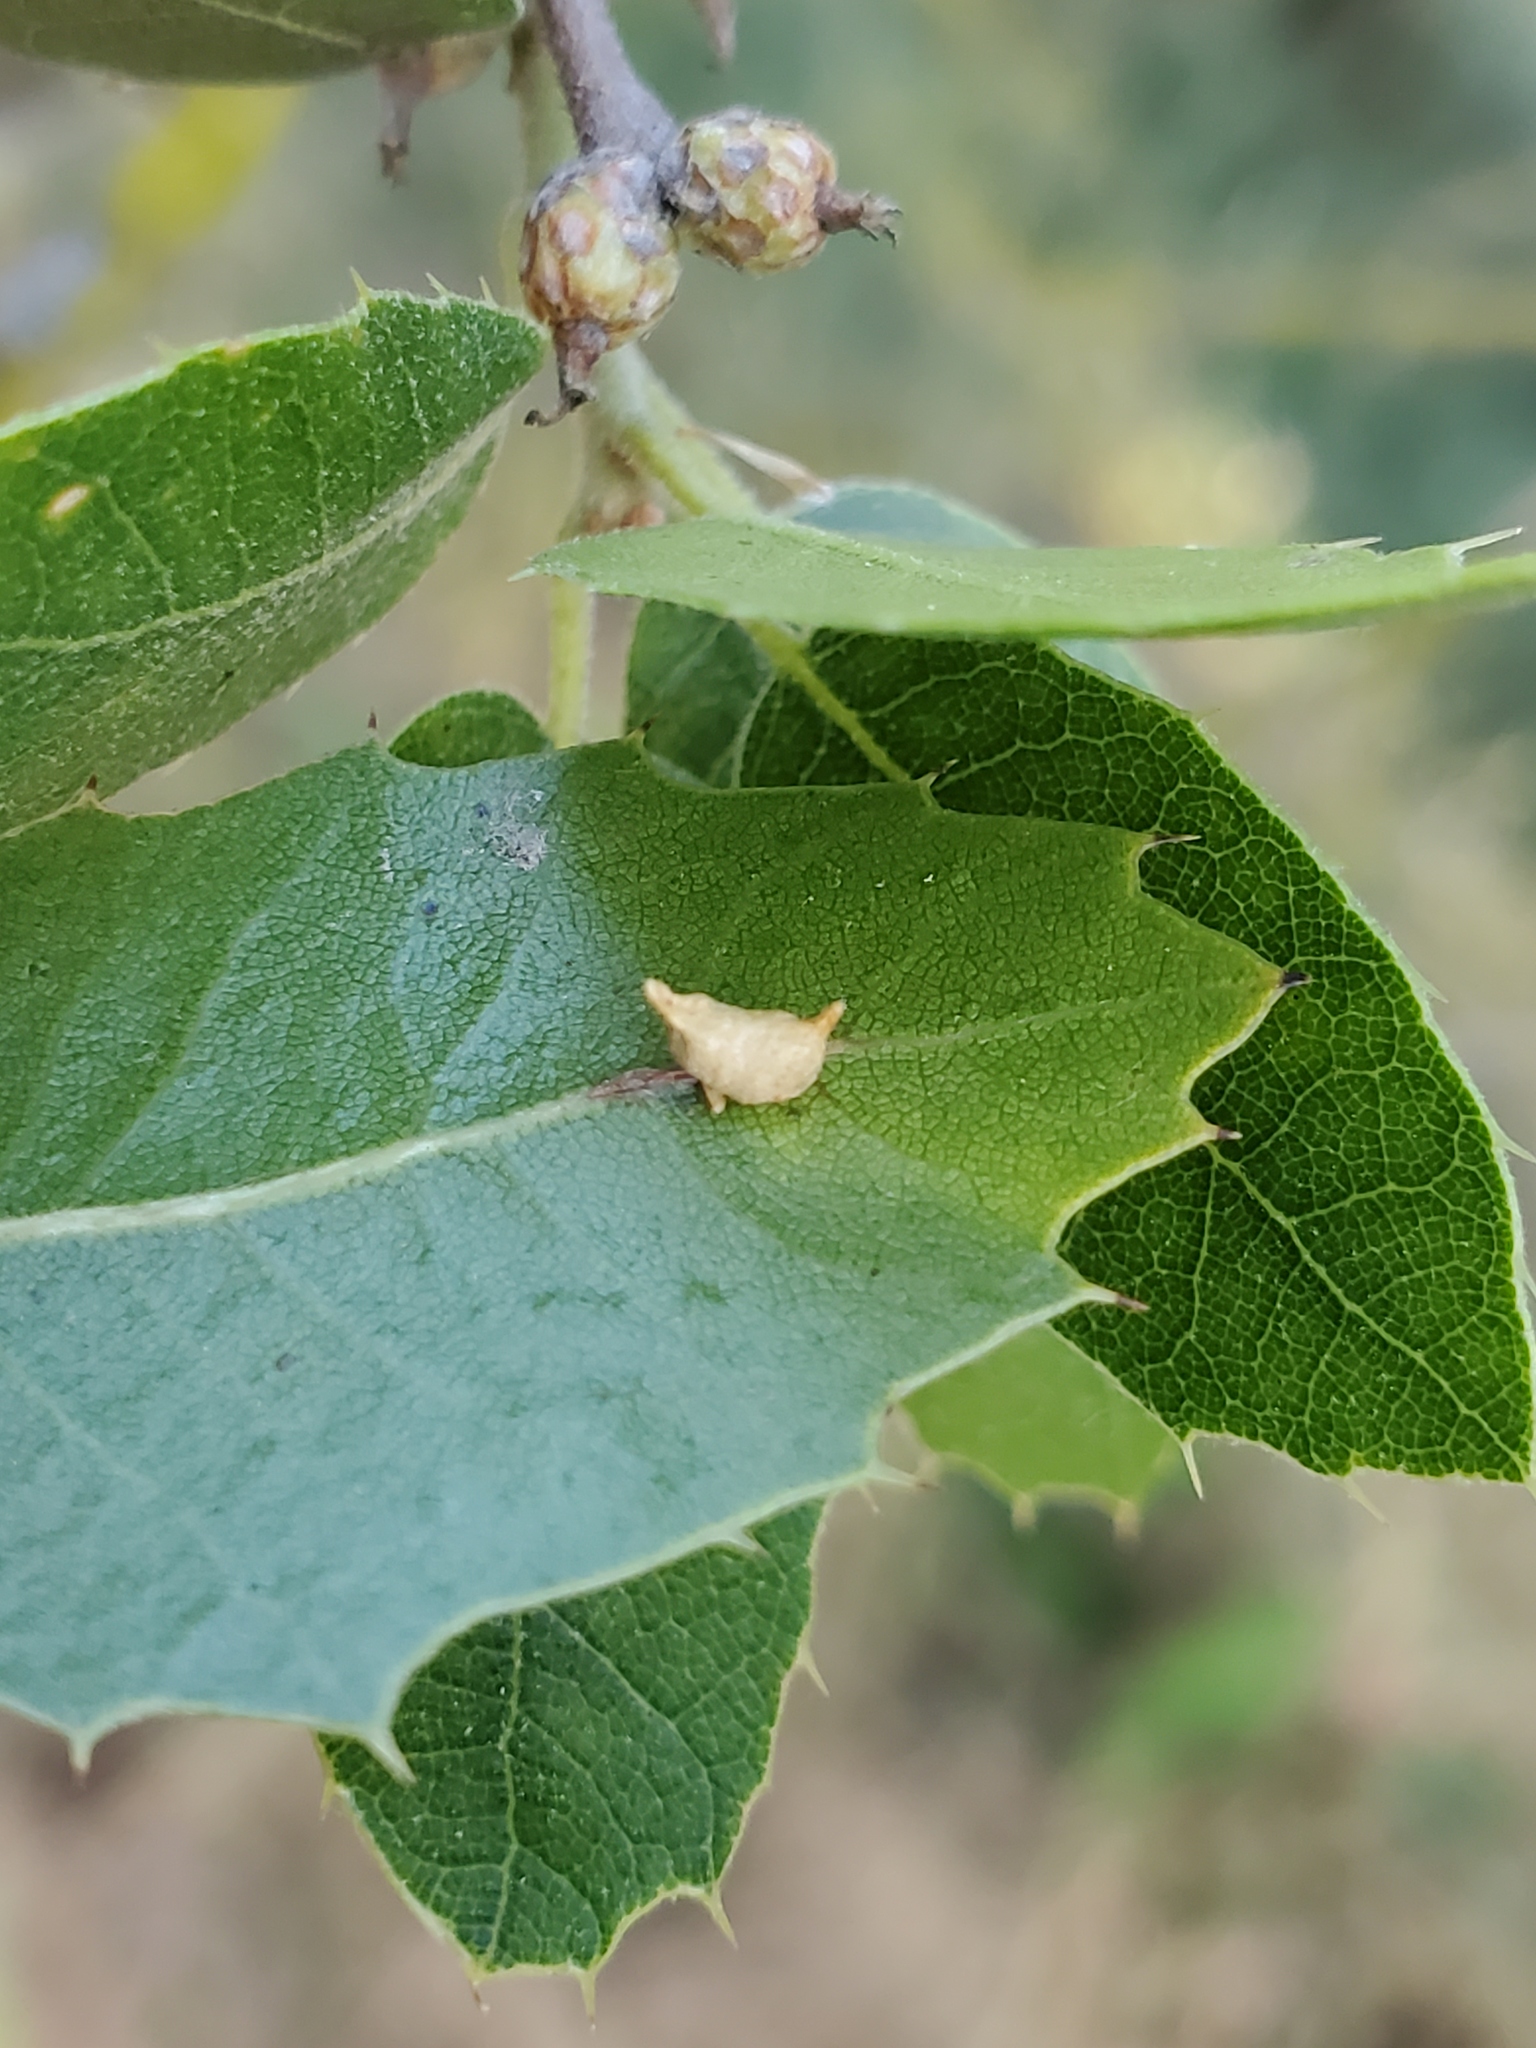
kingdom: Animalia
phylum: Arthropoda
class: Insecta
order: Hymenoptera
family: Cynipidae
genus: Dryocosmus
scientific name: Dryocosmus
